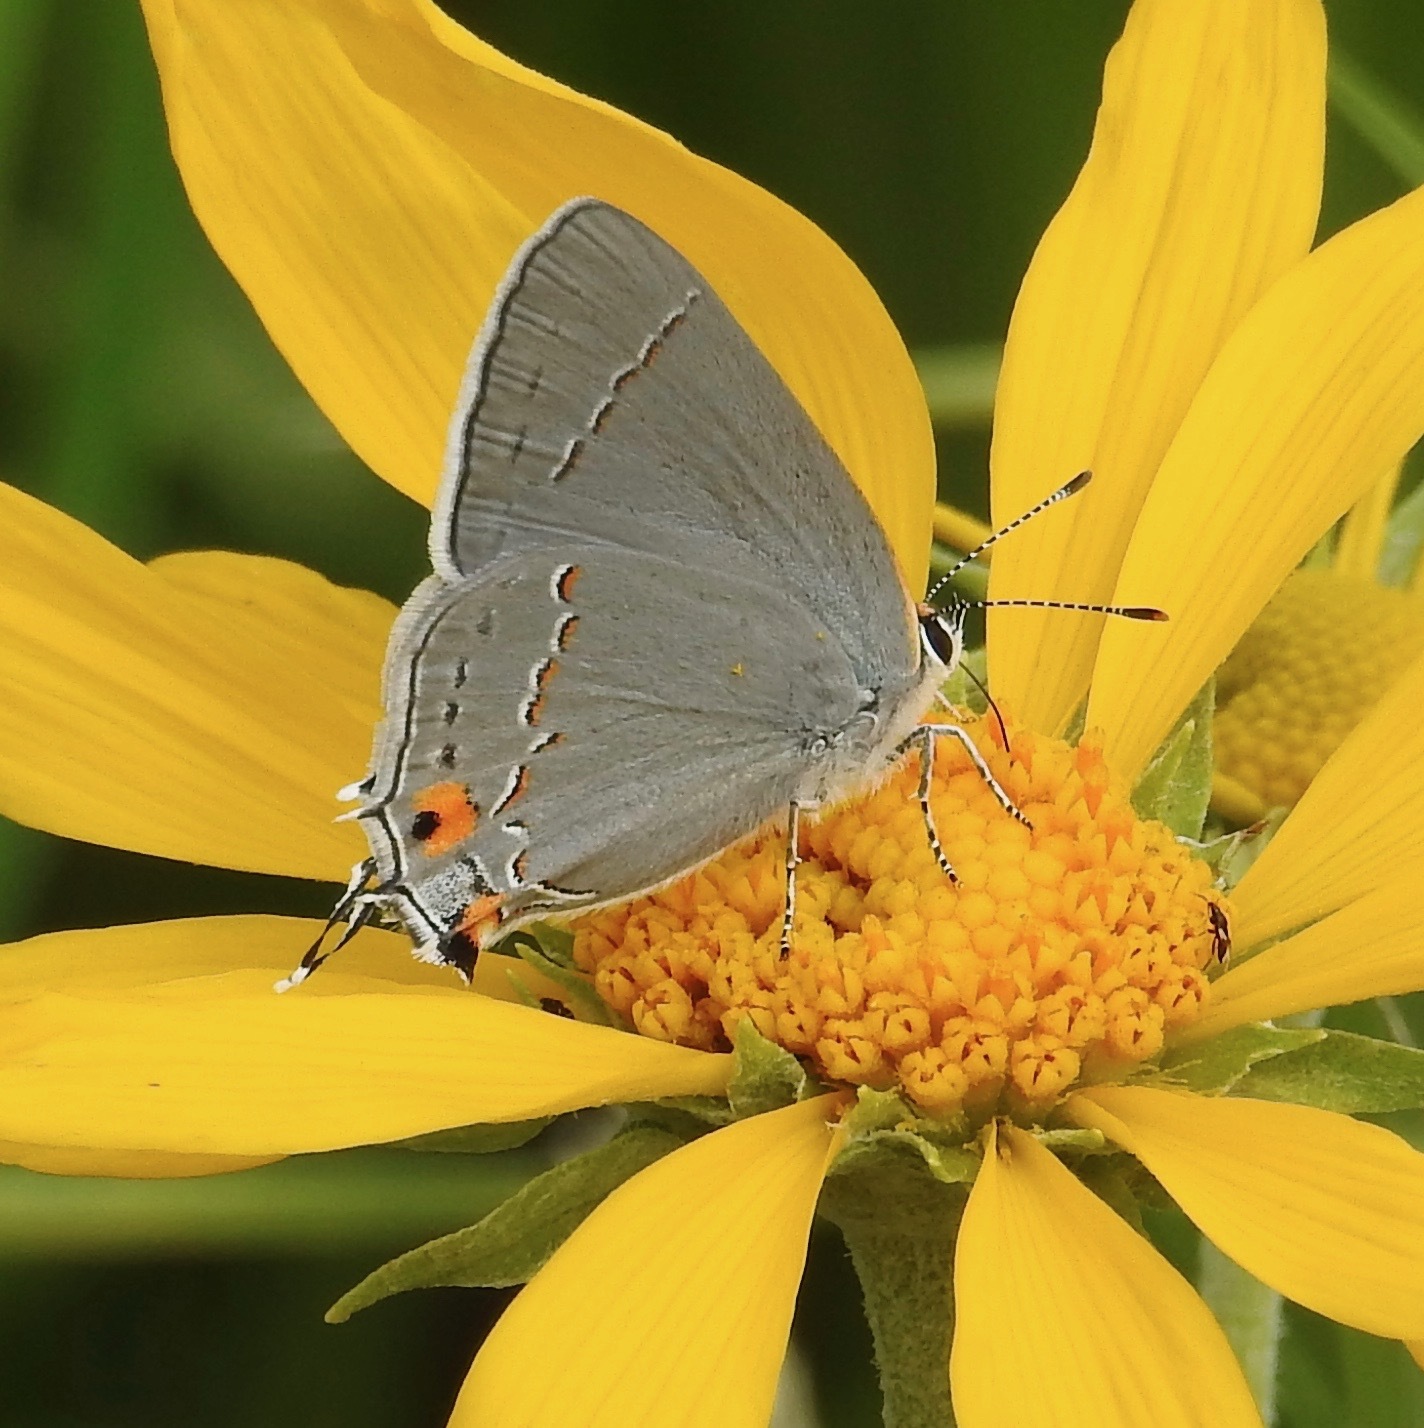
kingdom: Animalia
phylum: Arthropoda
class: Insecta
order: Lepidoptera
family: Lycaenidae
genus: Strymon
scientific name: Strymon melinus
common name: Gray hairstreak
